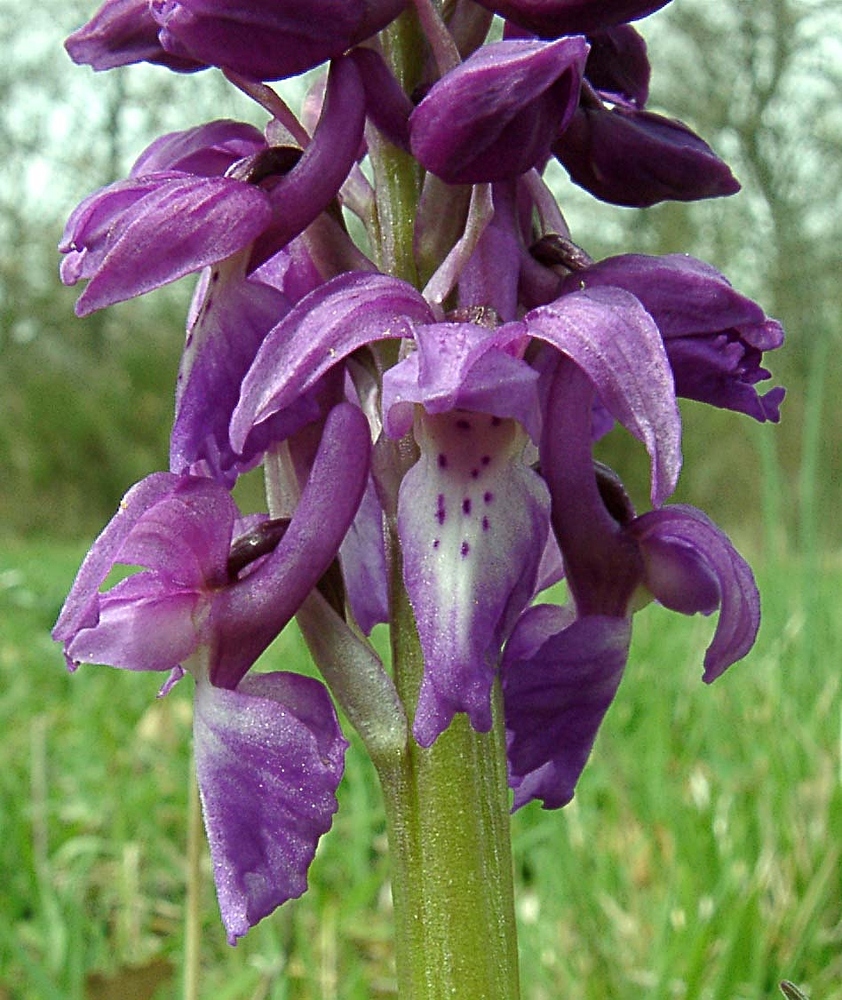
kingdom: Plantae
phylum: Tracheophyta
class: Liliopsida
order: Asparagales
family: Orchidaceae
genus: Orchis
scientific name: Orchis mascula
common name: Early-purple orchid
